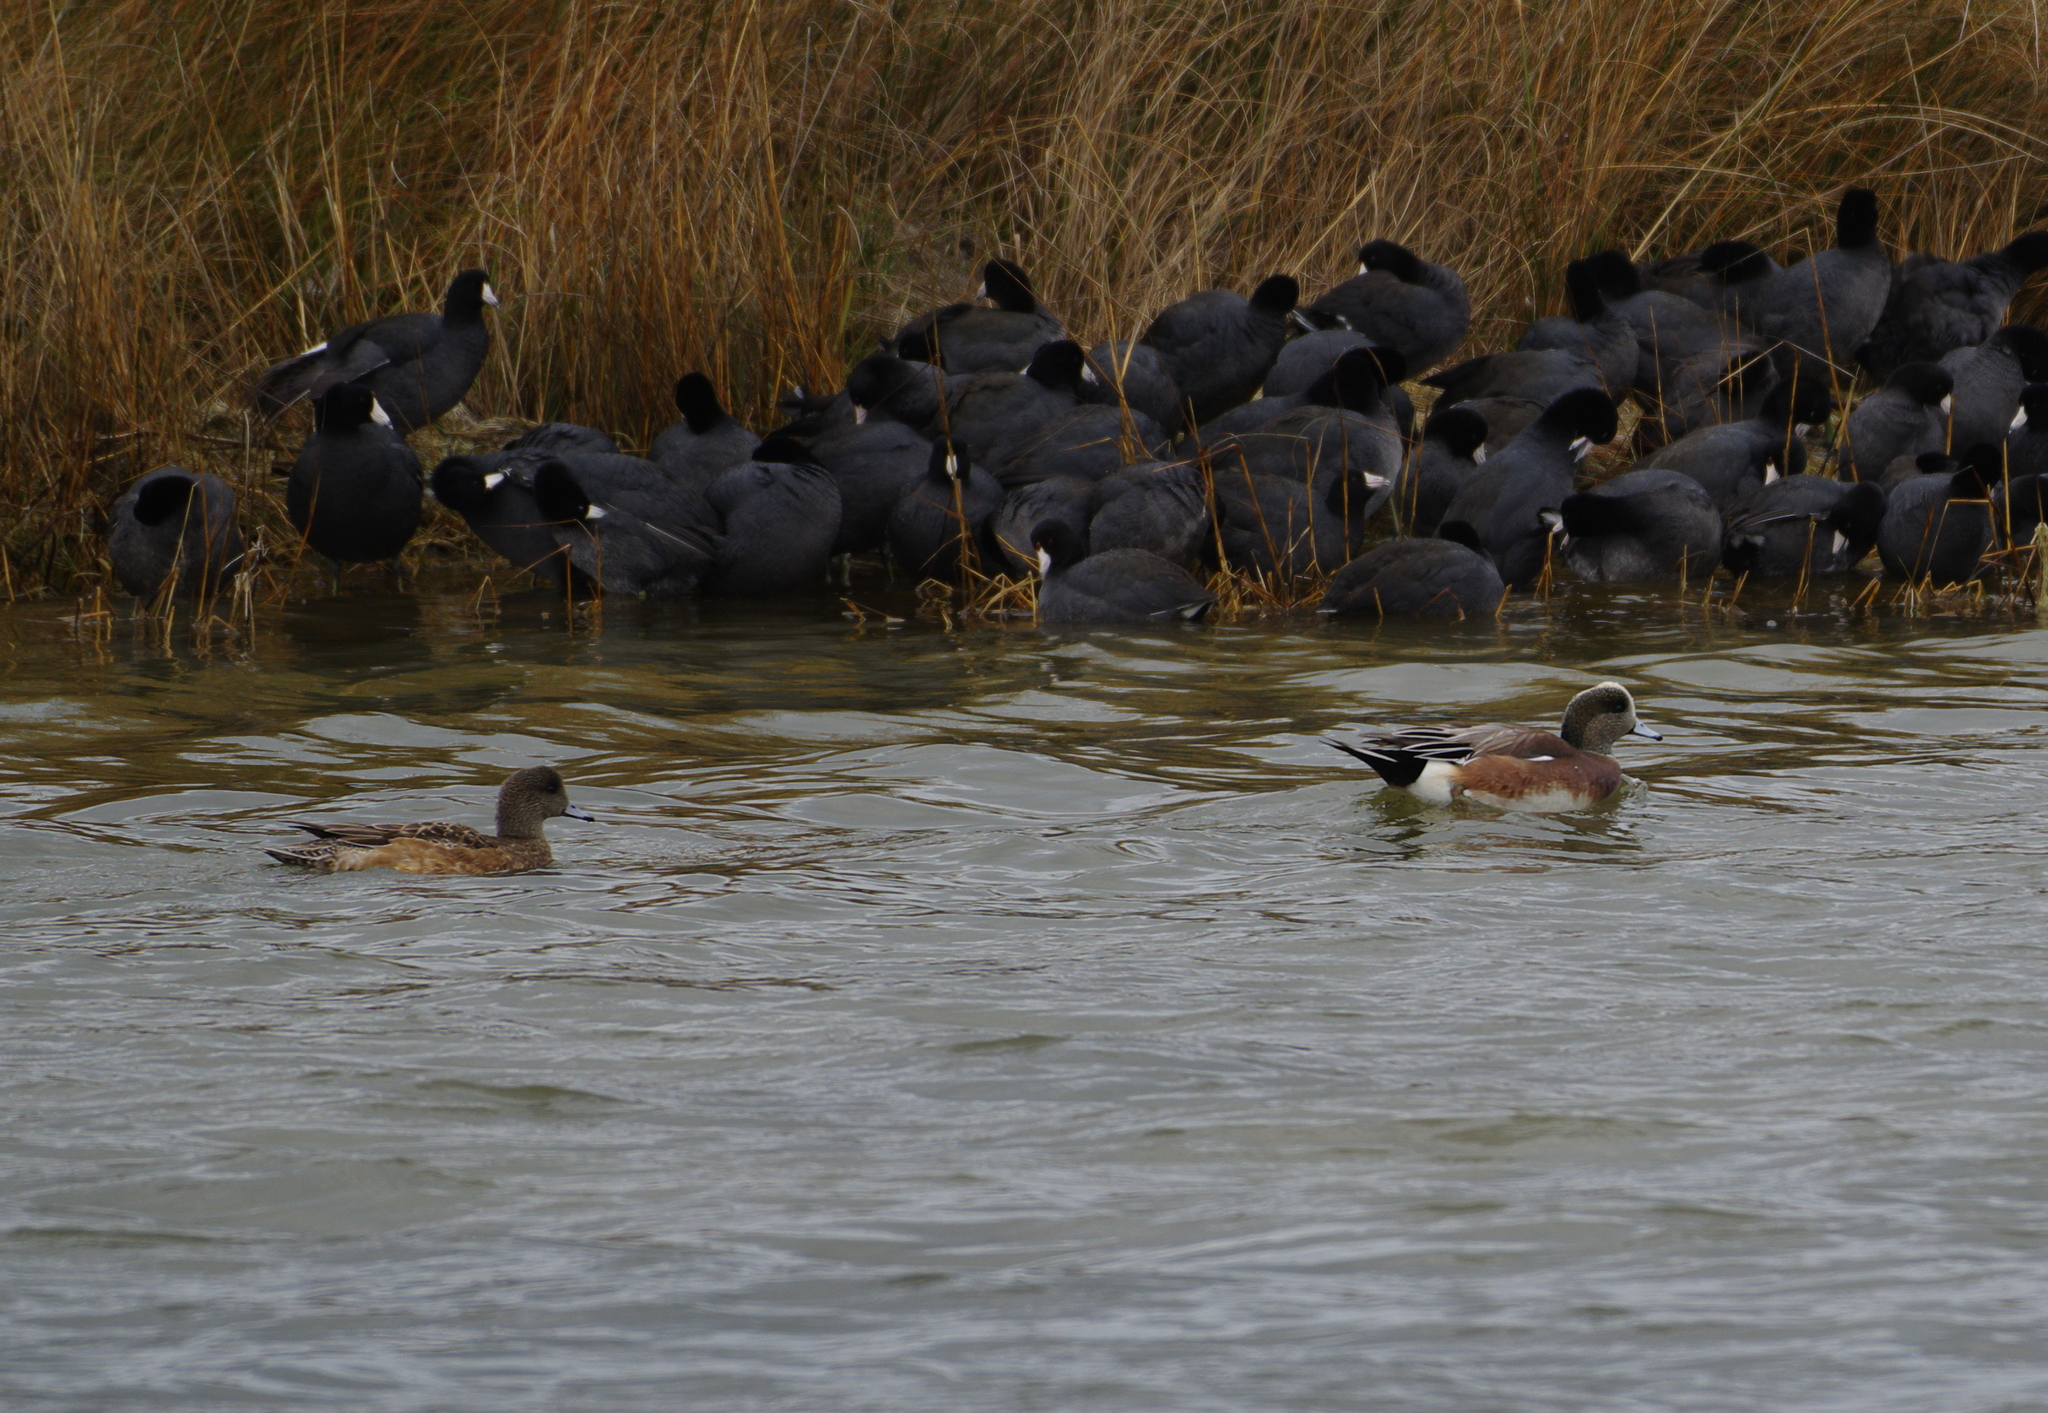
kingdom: Animalia
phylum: Chordata
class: Aves
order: Anseriformes
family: Anatidae
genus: Mareca
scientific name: Mareca americana
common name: American wigeon
